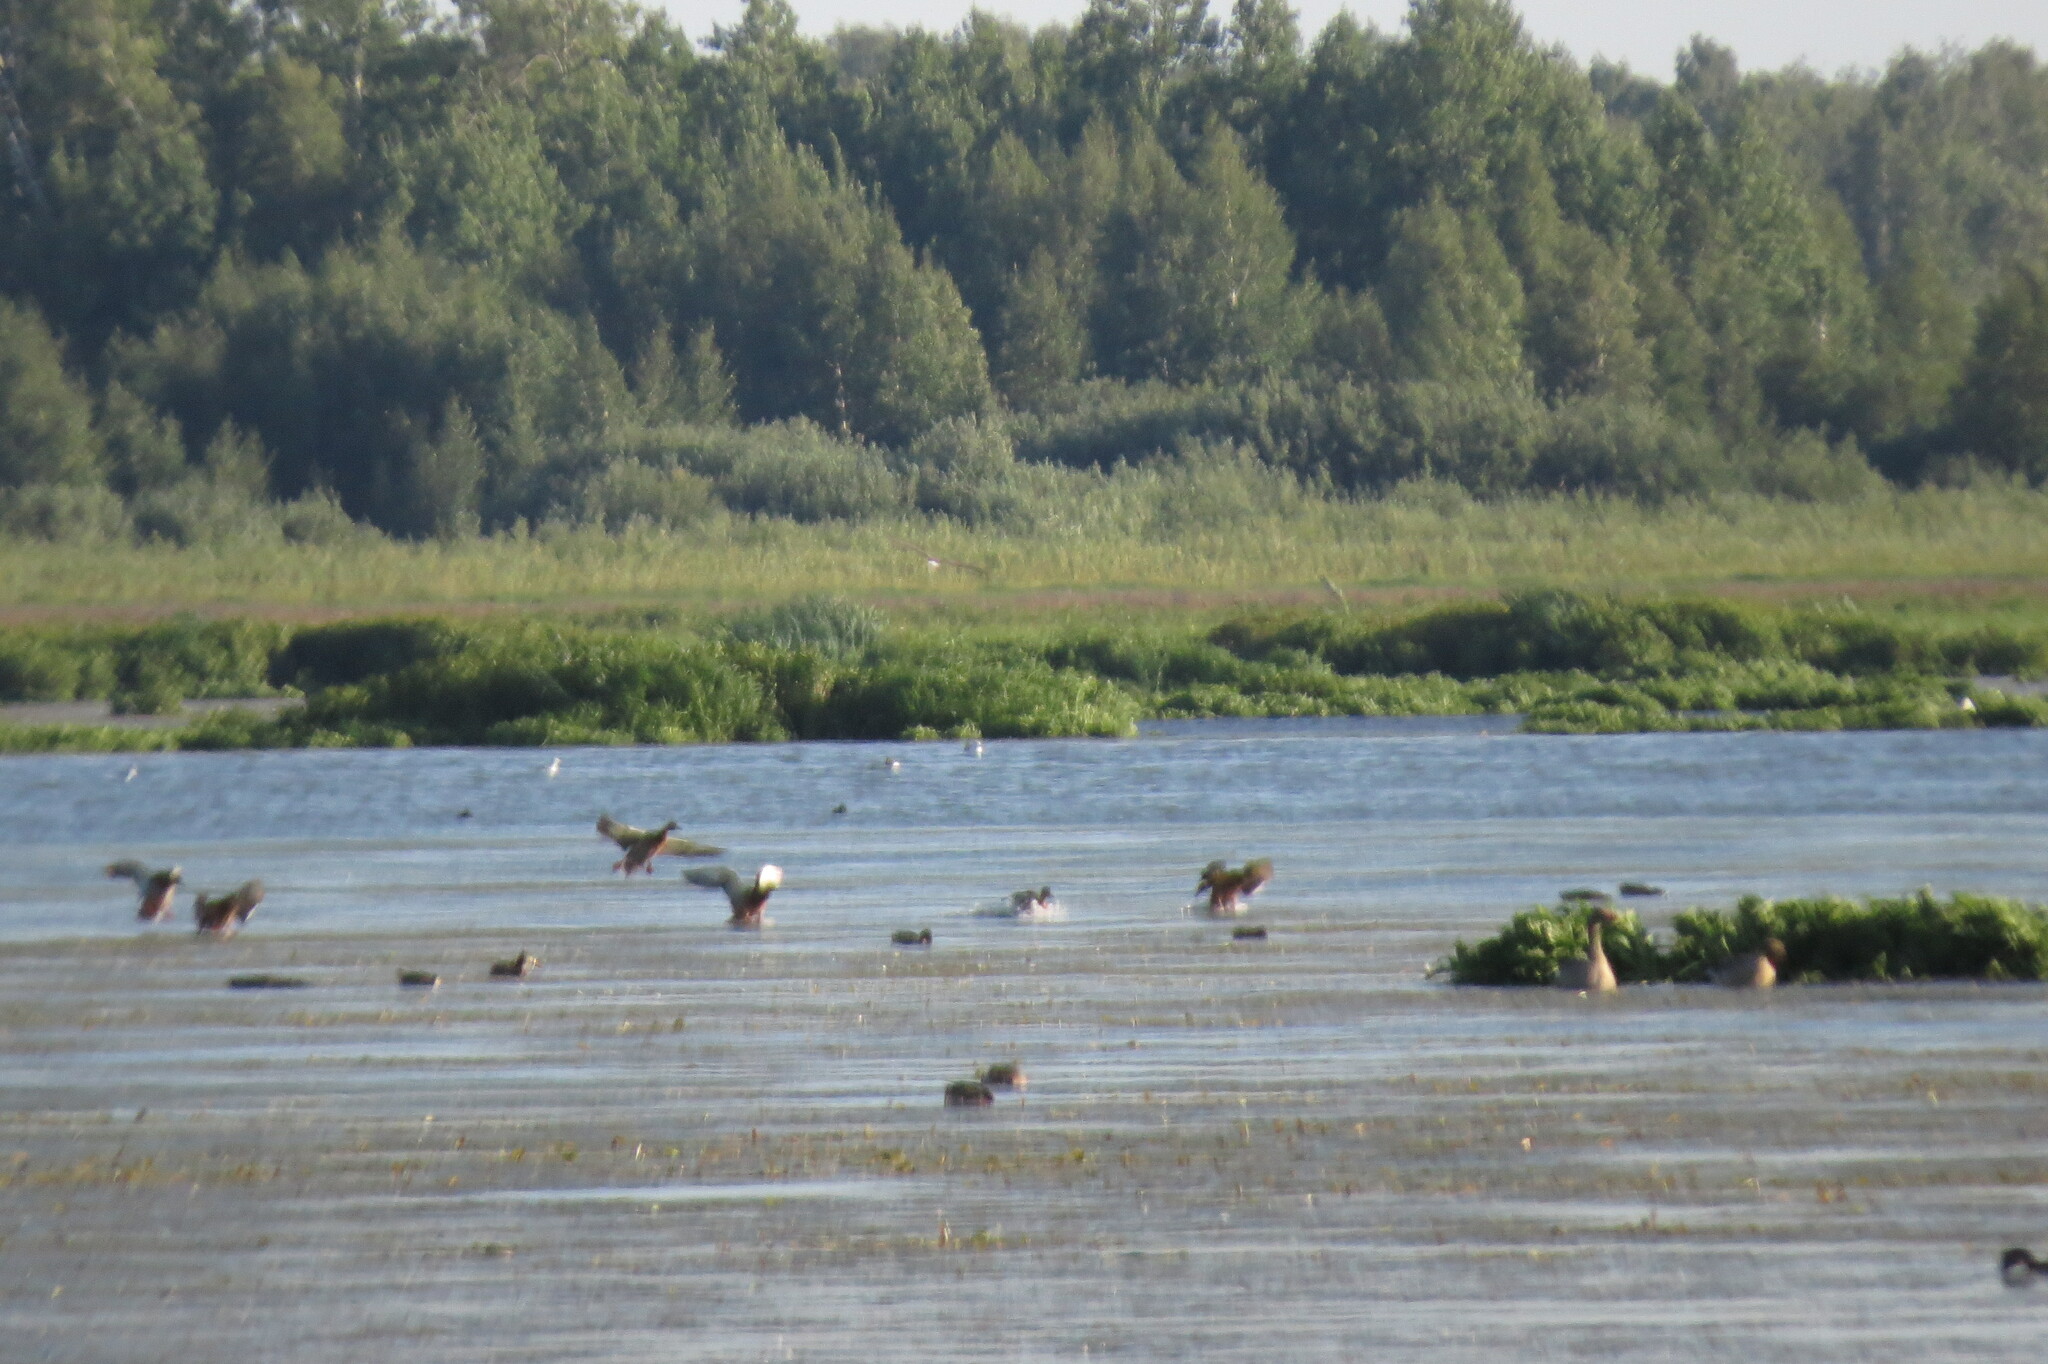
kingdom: Animalia
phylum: Chordata
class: Aves
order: Anseriformes
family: Anatidae
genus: Anas
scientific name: Anas platyrhynchos
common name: Mallard
